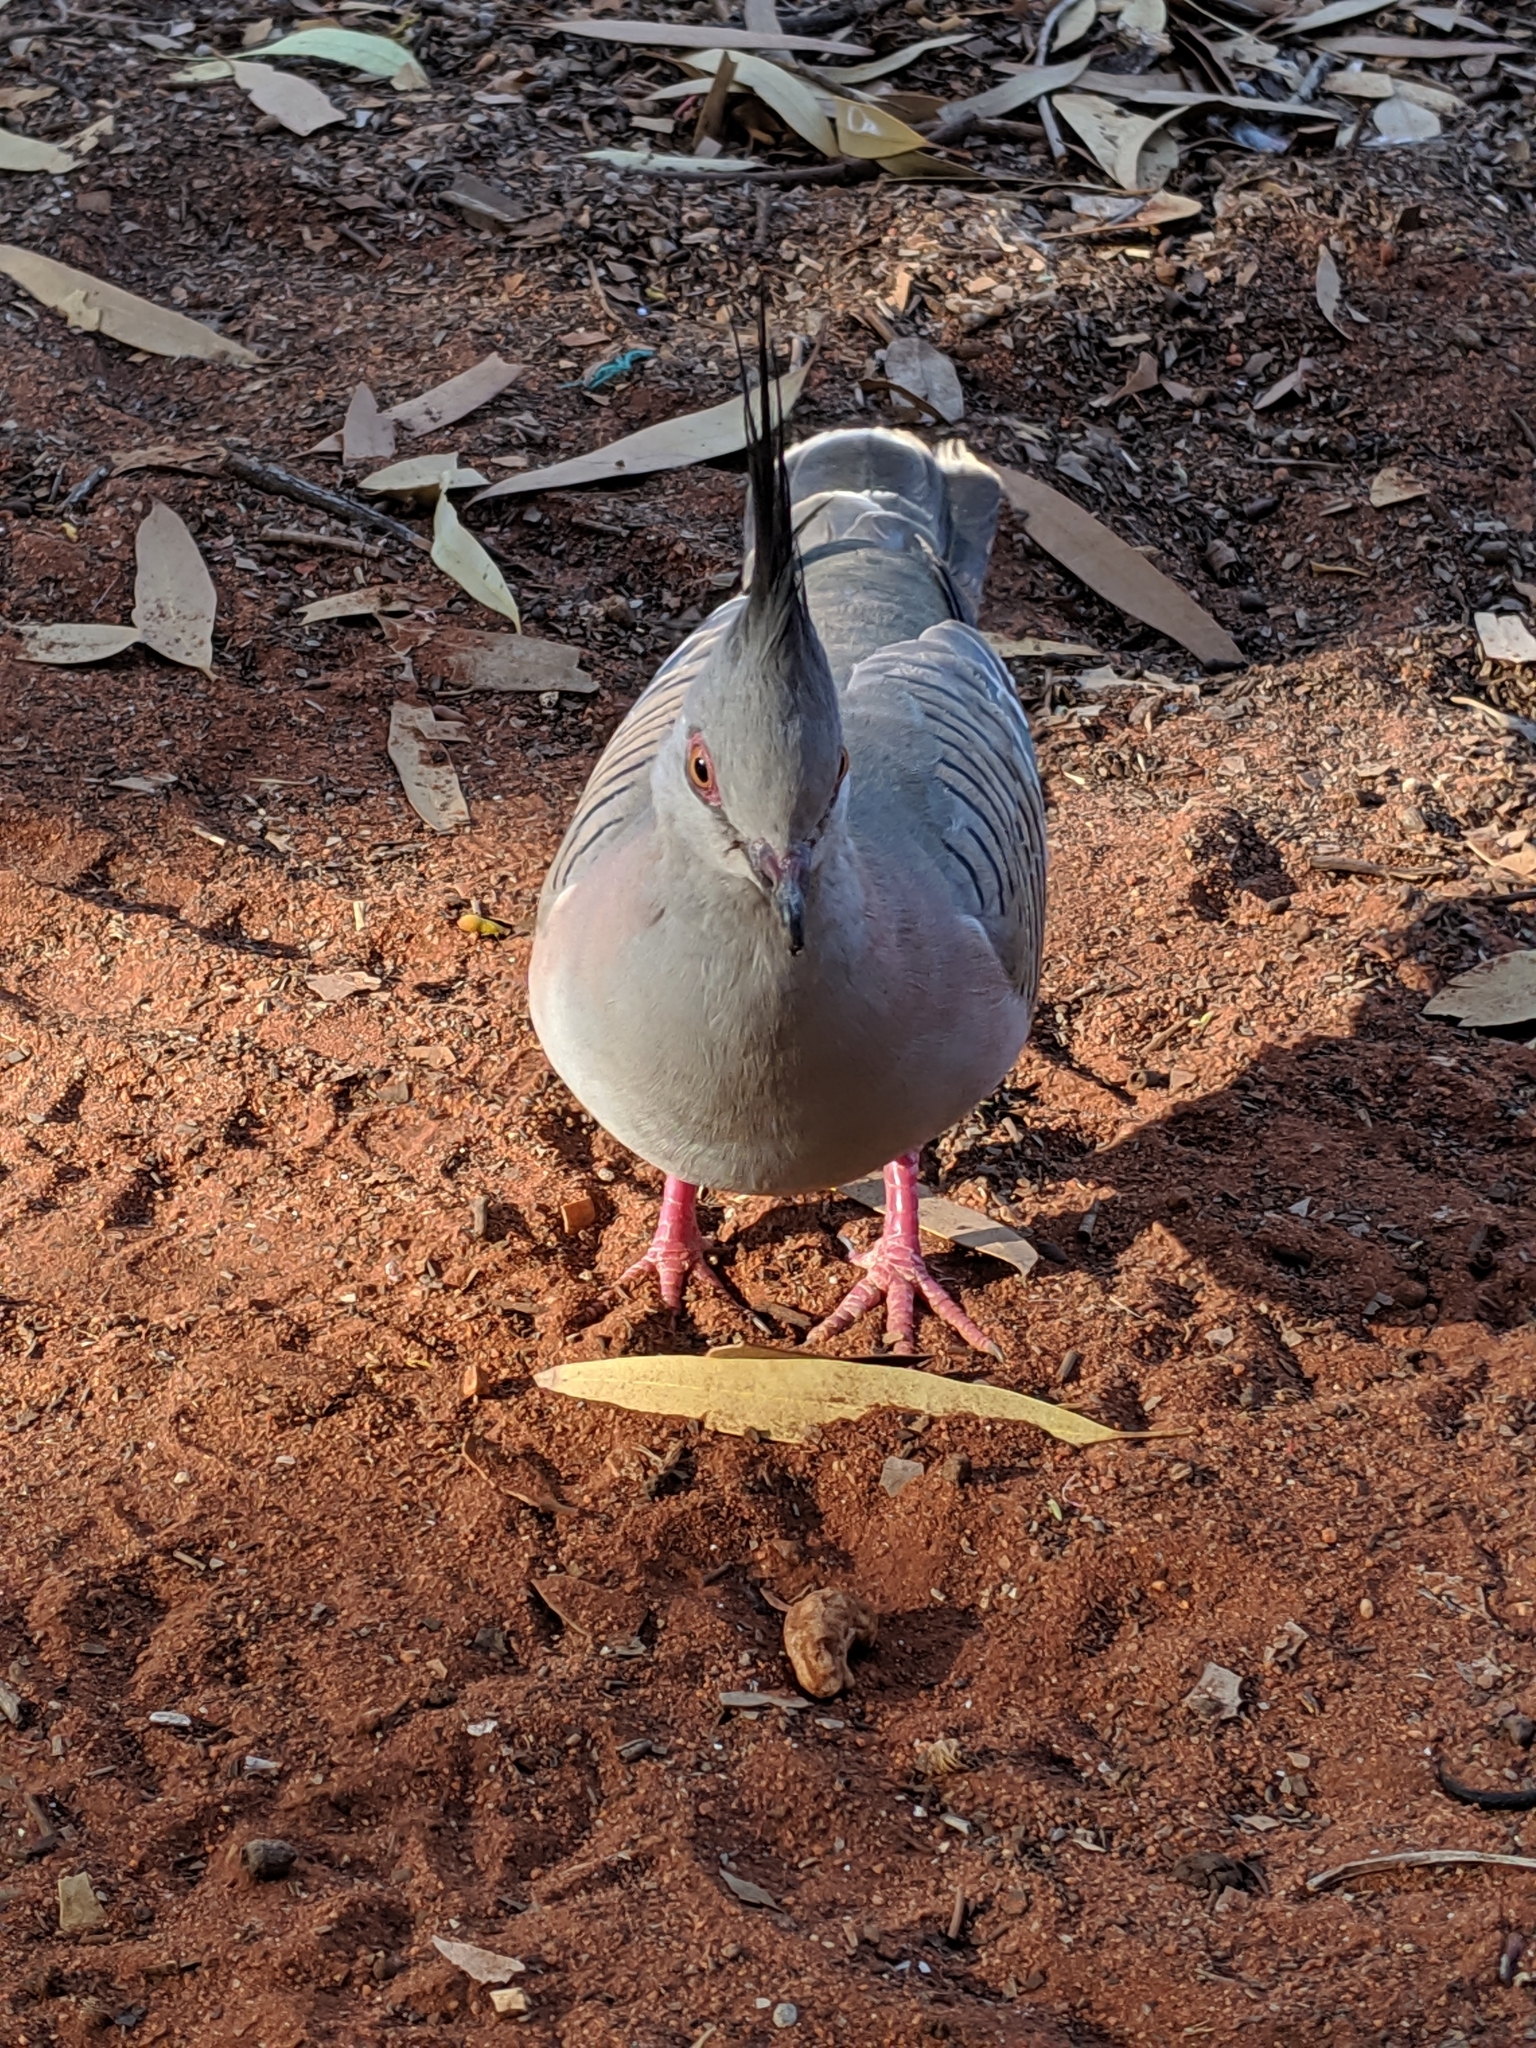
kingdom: Animalia
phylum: Chordata
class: Aves
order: Columbiformes
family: Columbidae
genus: Ocyphaps
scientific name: Ocyphaps lophotes
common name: Crested pigeon
